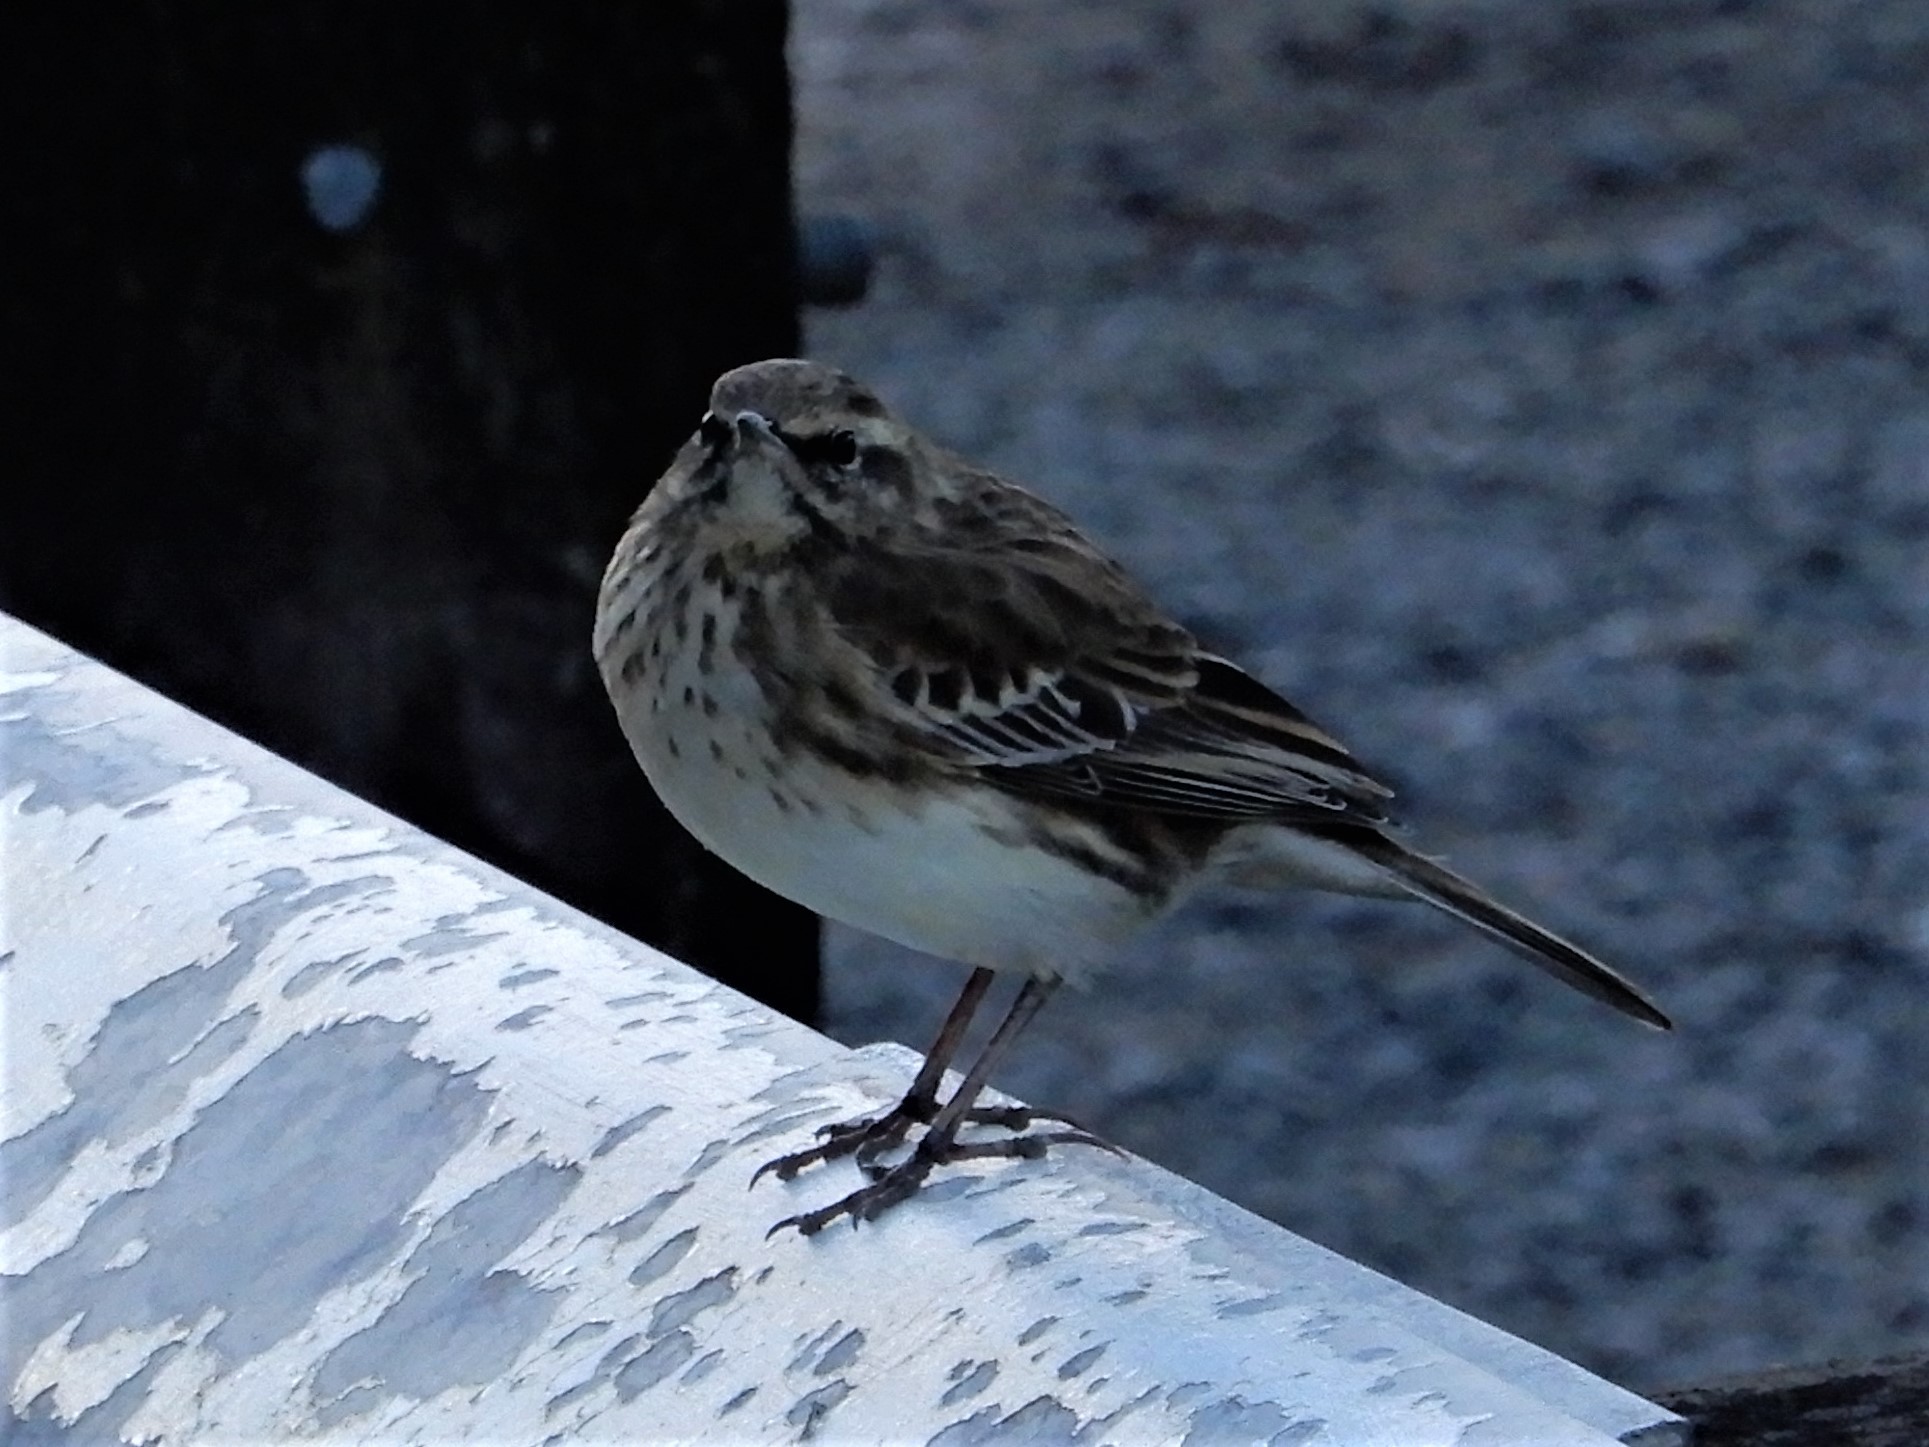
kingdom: Animalia
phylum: Chordata
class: Aves
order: Passeriformes
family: Motacillidae
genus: Anthus
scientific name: Anthus novaeseelandiae
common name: New zealand pipit
